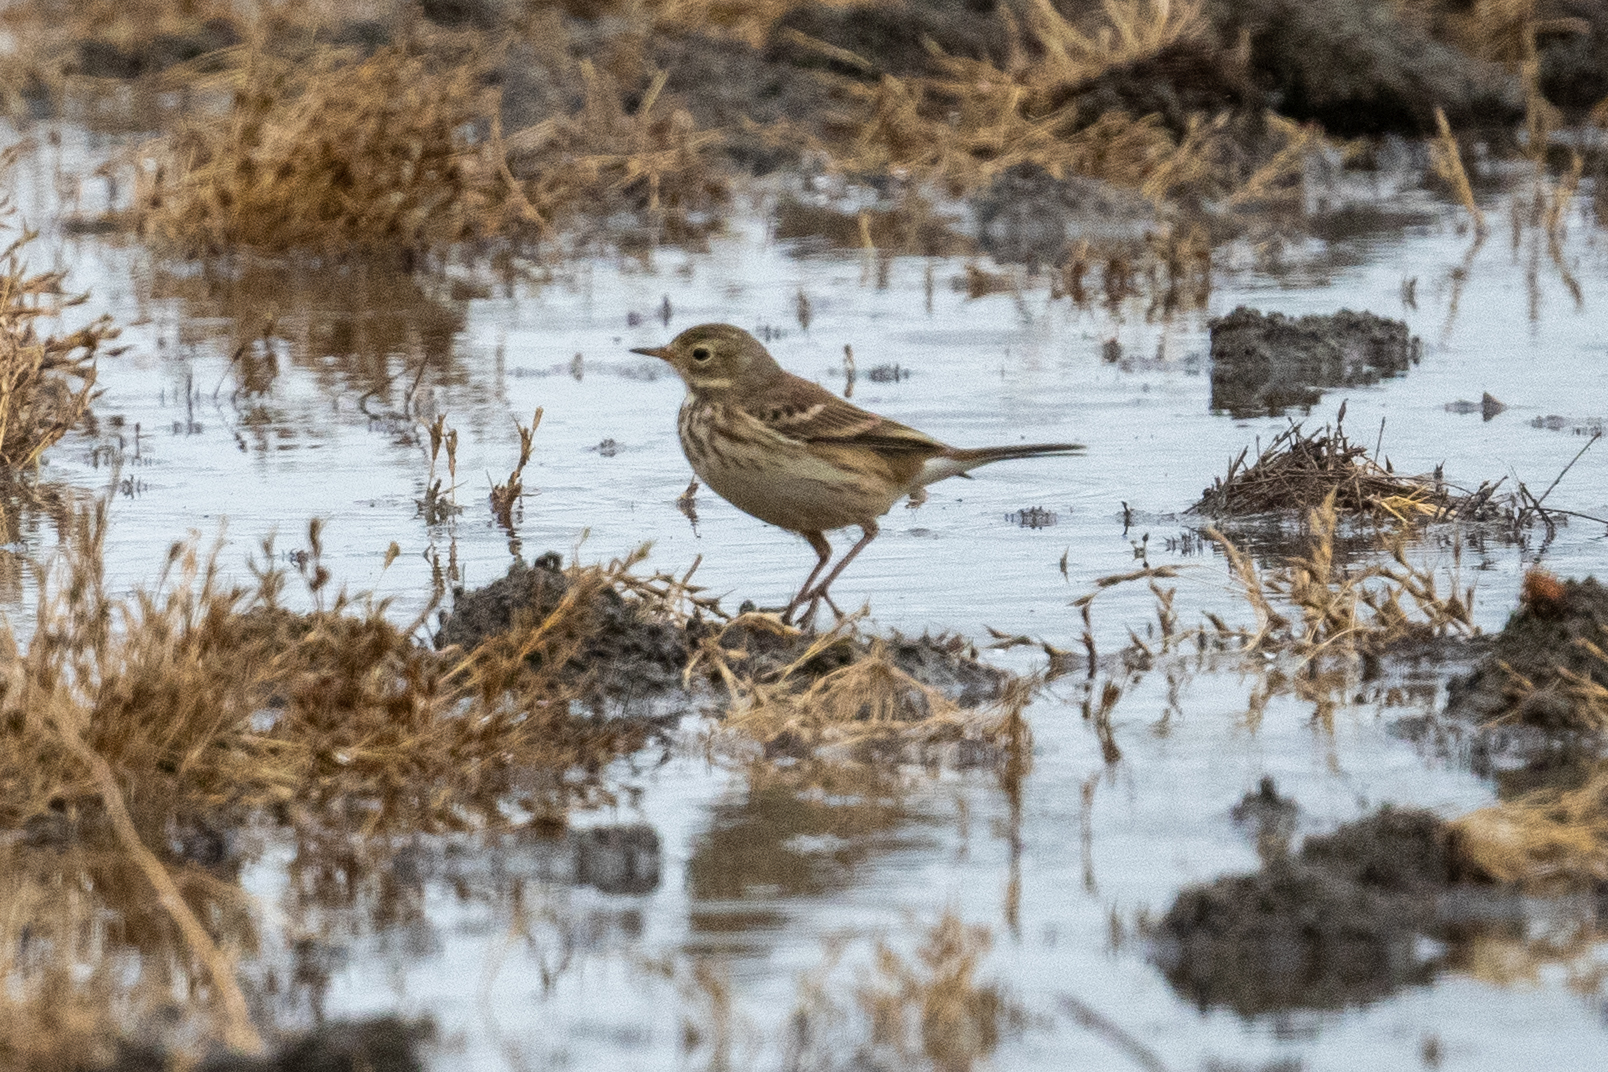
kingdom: Animalia
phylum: Chordata
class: Aves
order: Passeriformes
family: Motacillidae
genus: Anthus
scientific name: Anthus rubescens
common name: Buff-bellied pipit
